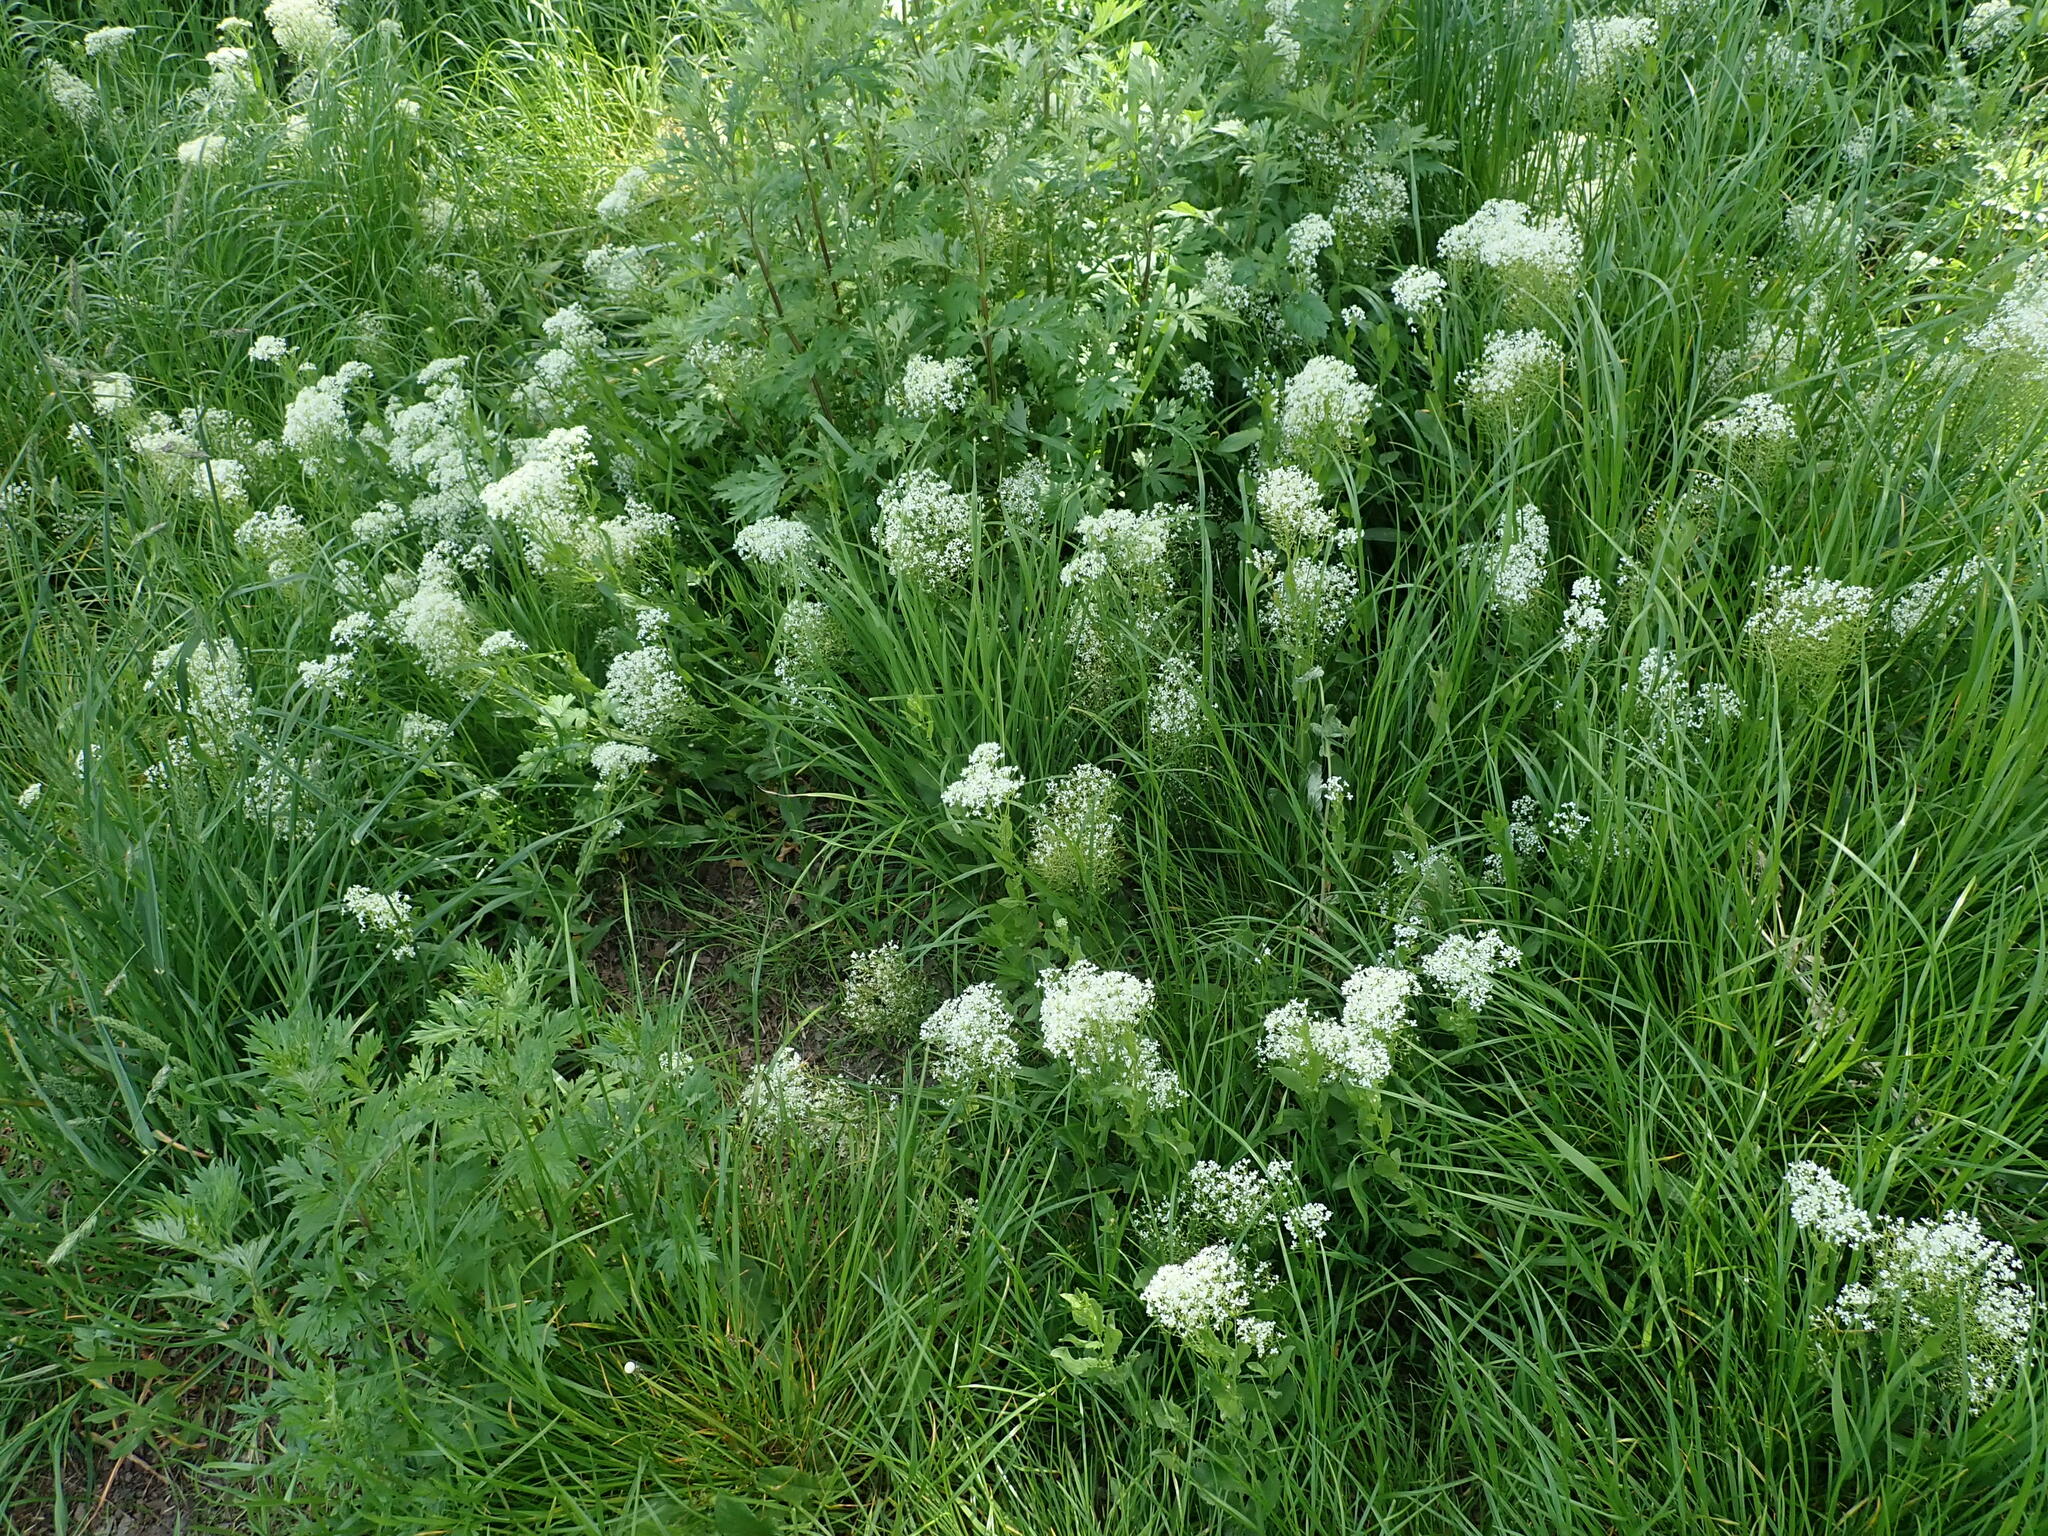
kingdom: Plantae
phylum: Tracheophyta
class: Magnoliopsida
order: Brassicales
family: Brassicaceae
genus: Lepidium
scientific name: Lepidium draba
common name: Hoary cress
